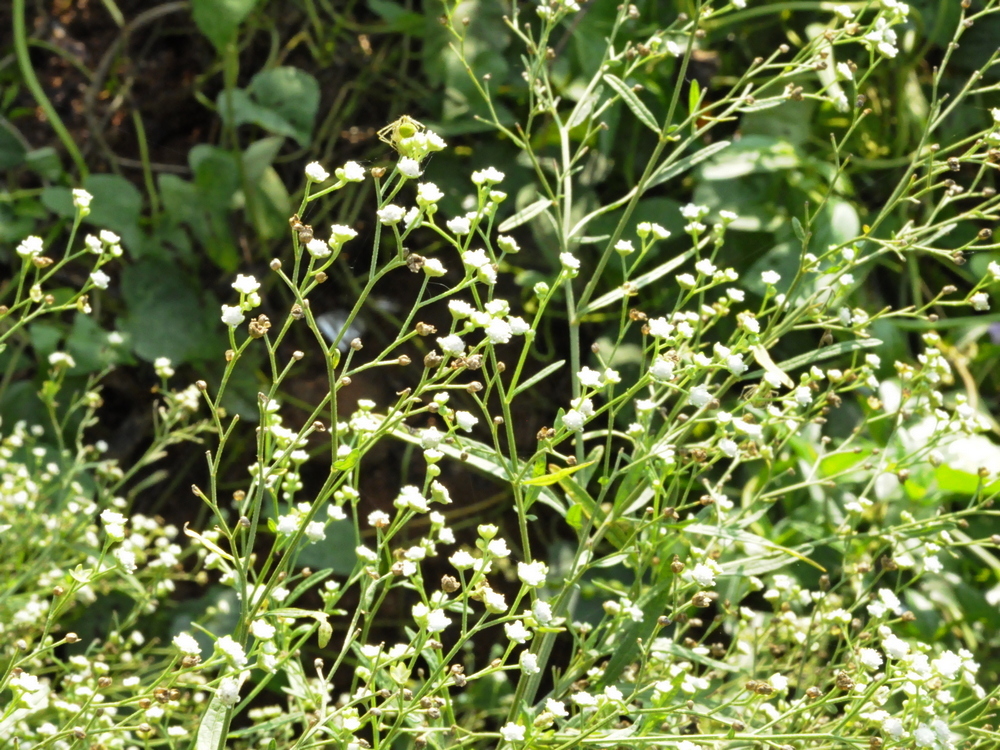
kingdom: Plantae
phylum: Tracheophyta
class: Magnoliopsida
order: Asterales
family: Asteraceae
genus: Parthenium
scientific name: Parthenium hysterophorus
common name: Santa maria feverfew
